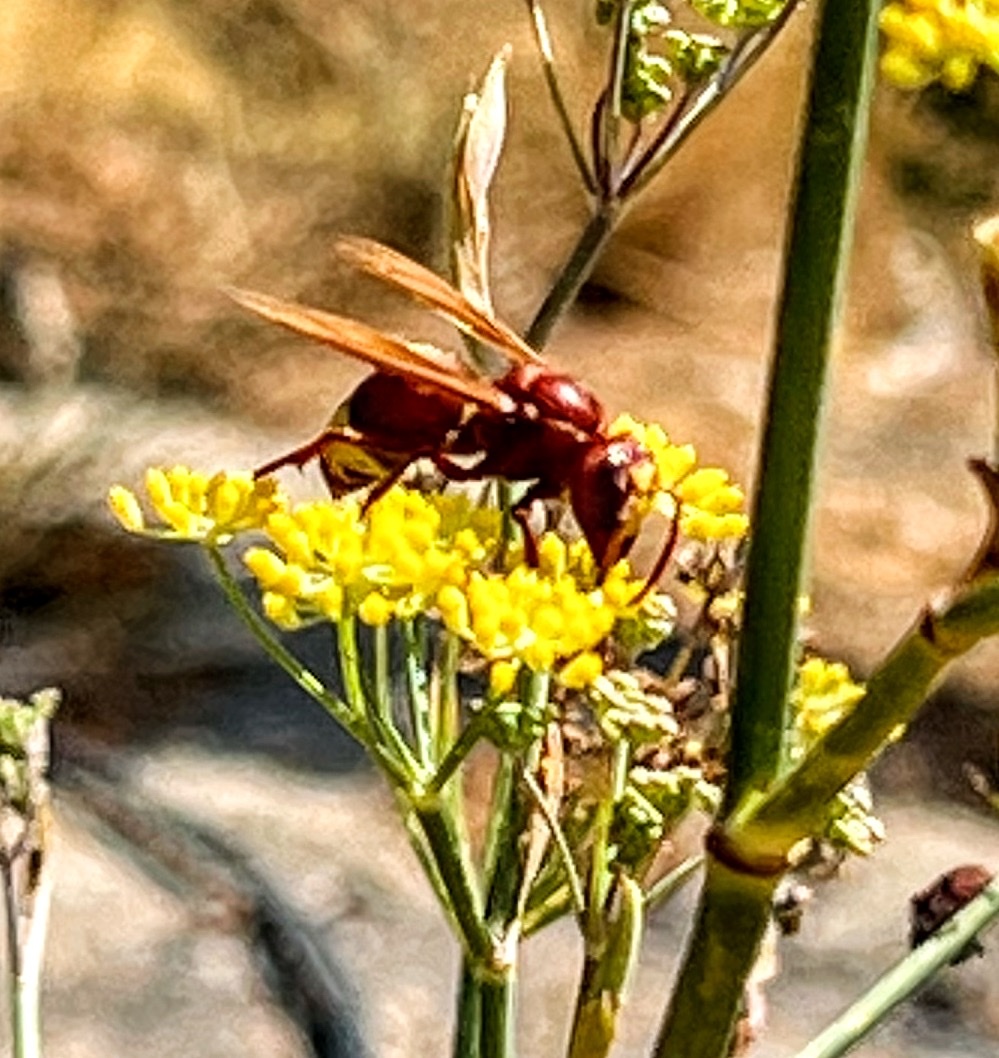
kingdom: Animalia
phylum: Arthropoda
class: Insecta
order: Hymenoptera
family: Vespidae
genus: Vespa
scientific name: Vespa orientalis
